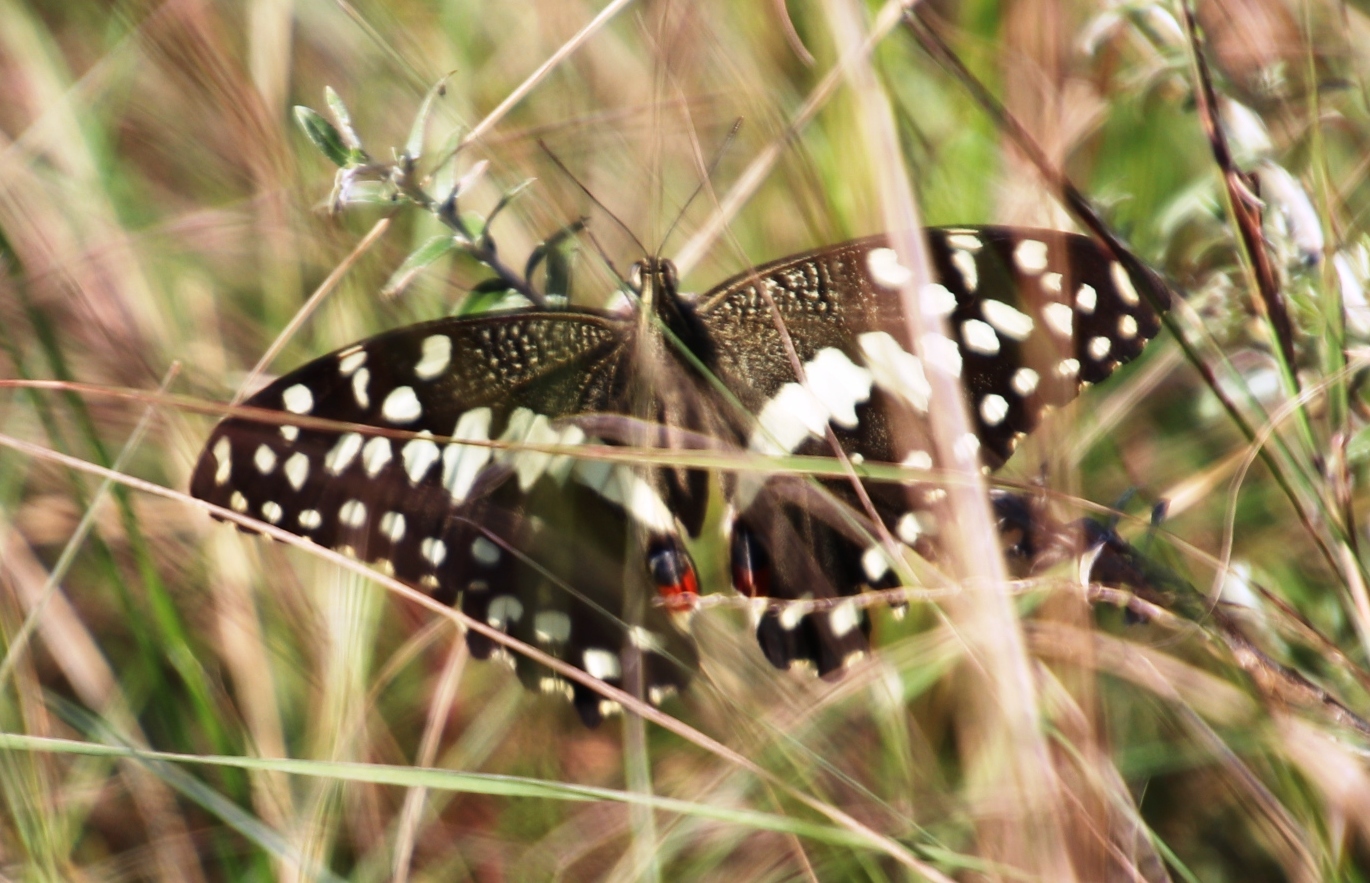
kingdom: Animalia
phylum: Arthropoda
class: Insecta
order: Lepidoptera
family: Papilionidae
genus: Papilio
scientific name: Papilio demodocus
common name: Christmas butterfly
